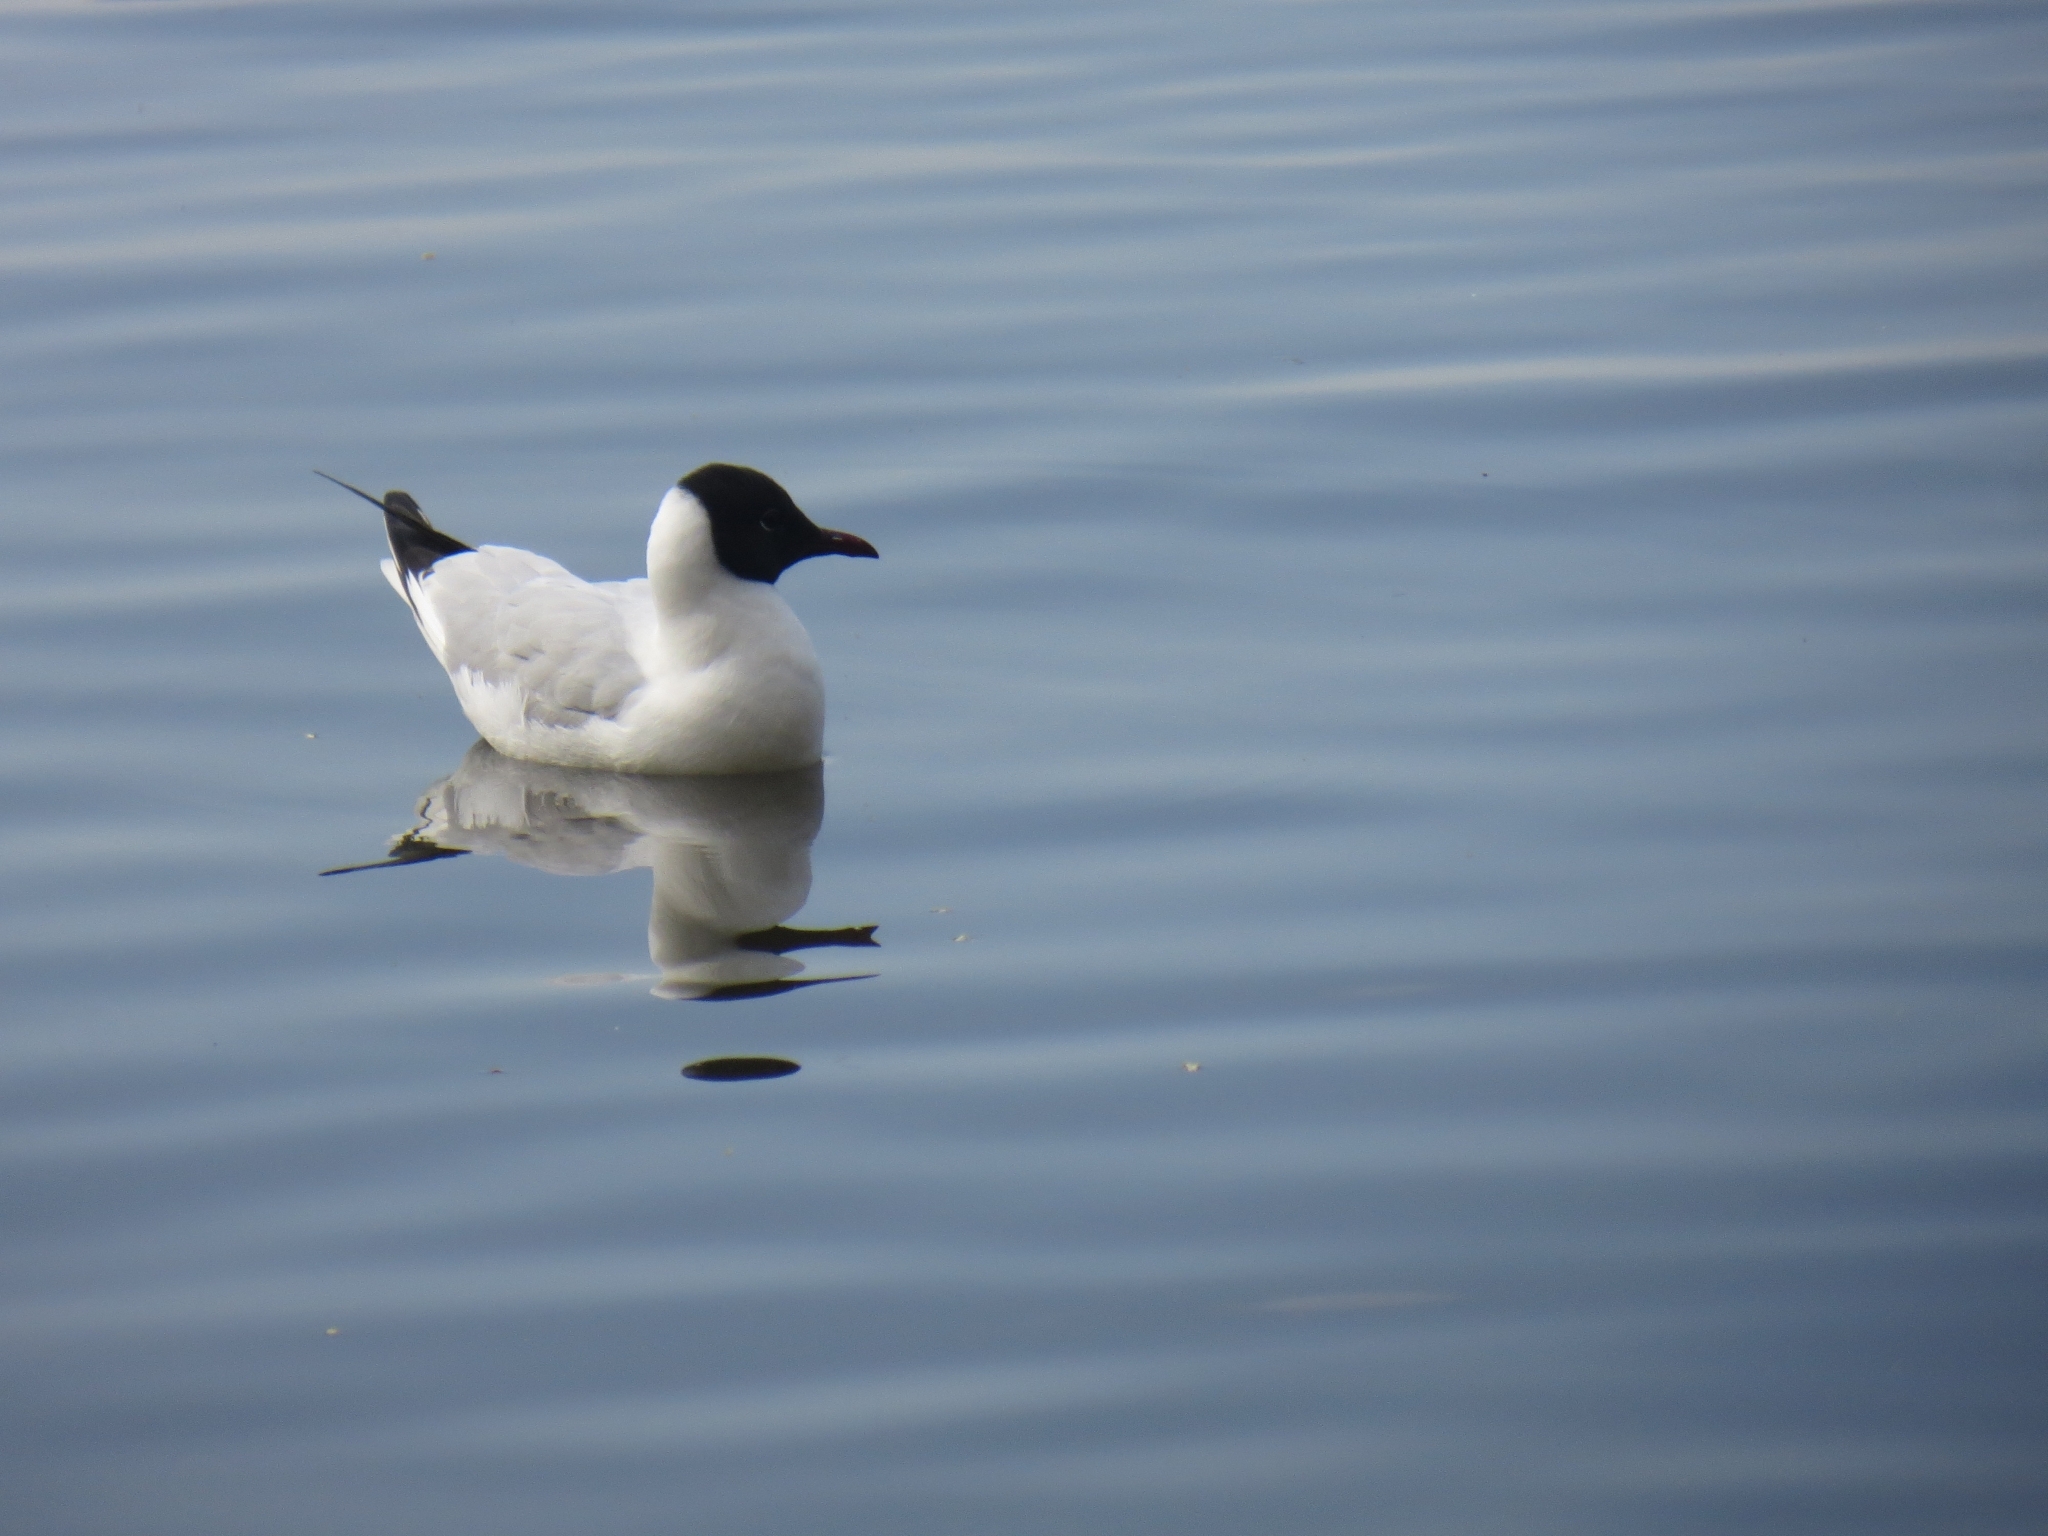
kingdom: Animalia
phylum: Chordata
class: Aves
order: Charadriiformes
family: Laridae
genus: Chroicocephalus
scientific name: Chroicocephalus ridibundus
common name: Black-headed gull
